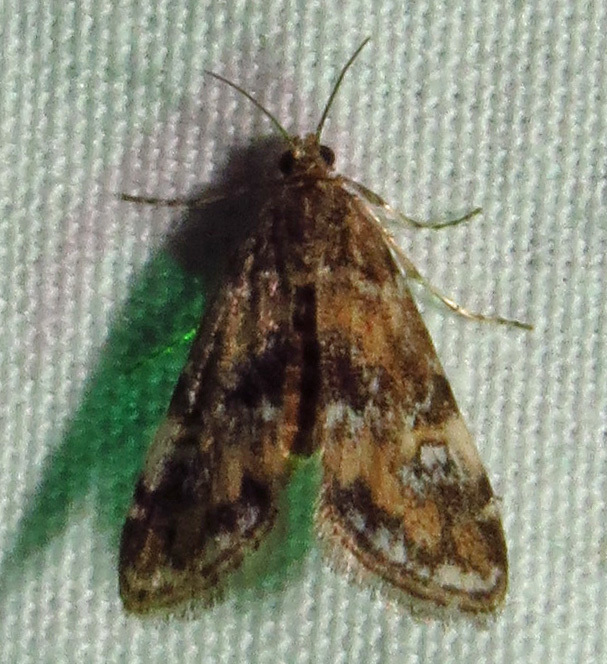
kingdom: Animalia
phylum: Arthropoda
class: Insecta
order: Lepidoptera
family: Crambidae
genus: Elophila
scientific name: Elophila obliteralis
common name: Waterlily leafcutter moth
